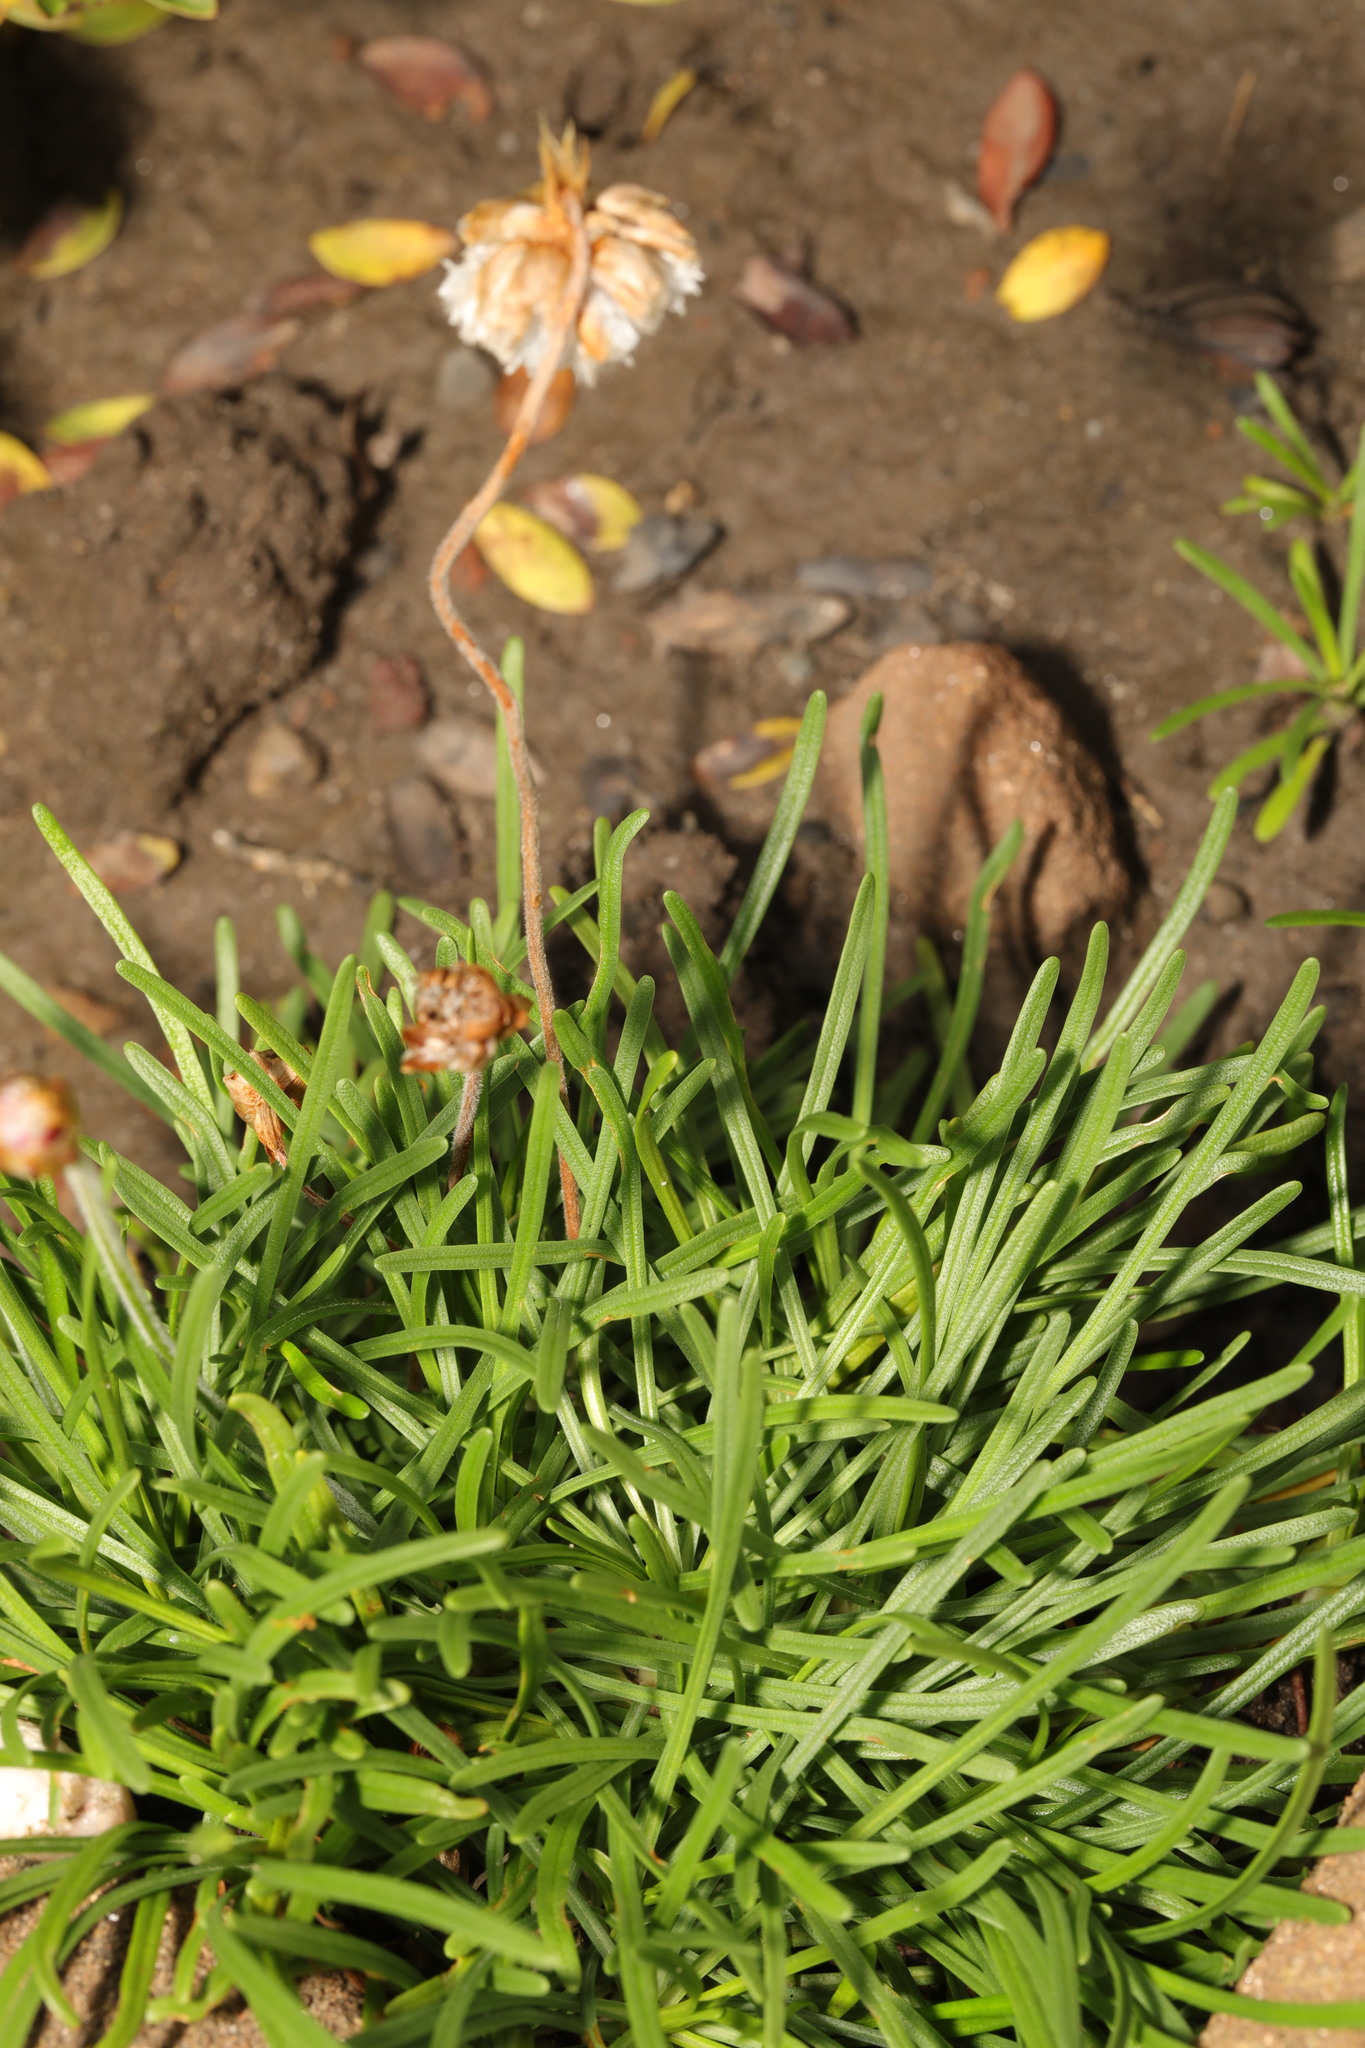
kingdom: Plantae
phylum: Tracheophyta
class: Magnoliopsida
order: Caryophyllales
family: Plumbaginaceae
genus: Armeria
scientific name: Armeria maritima
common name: Thrift
